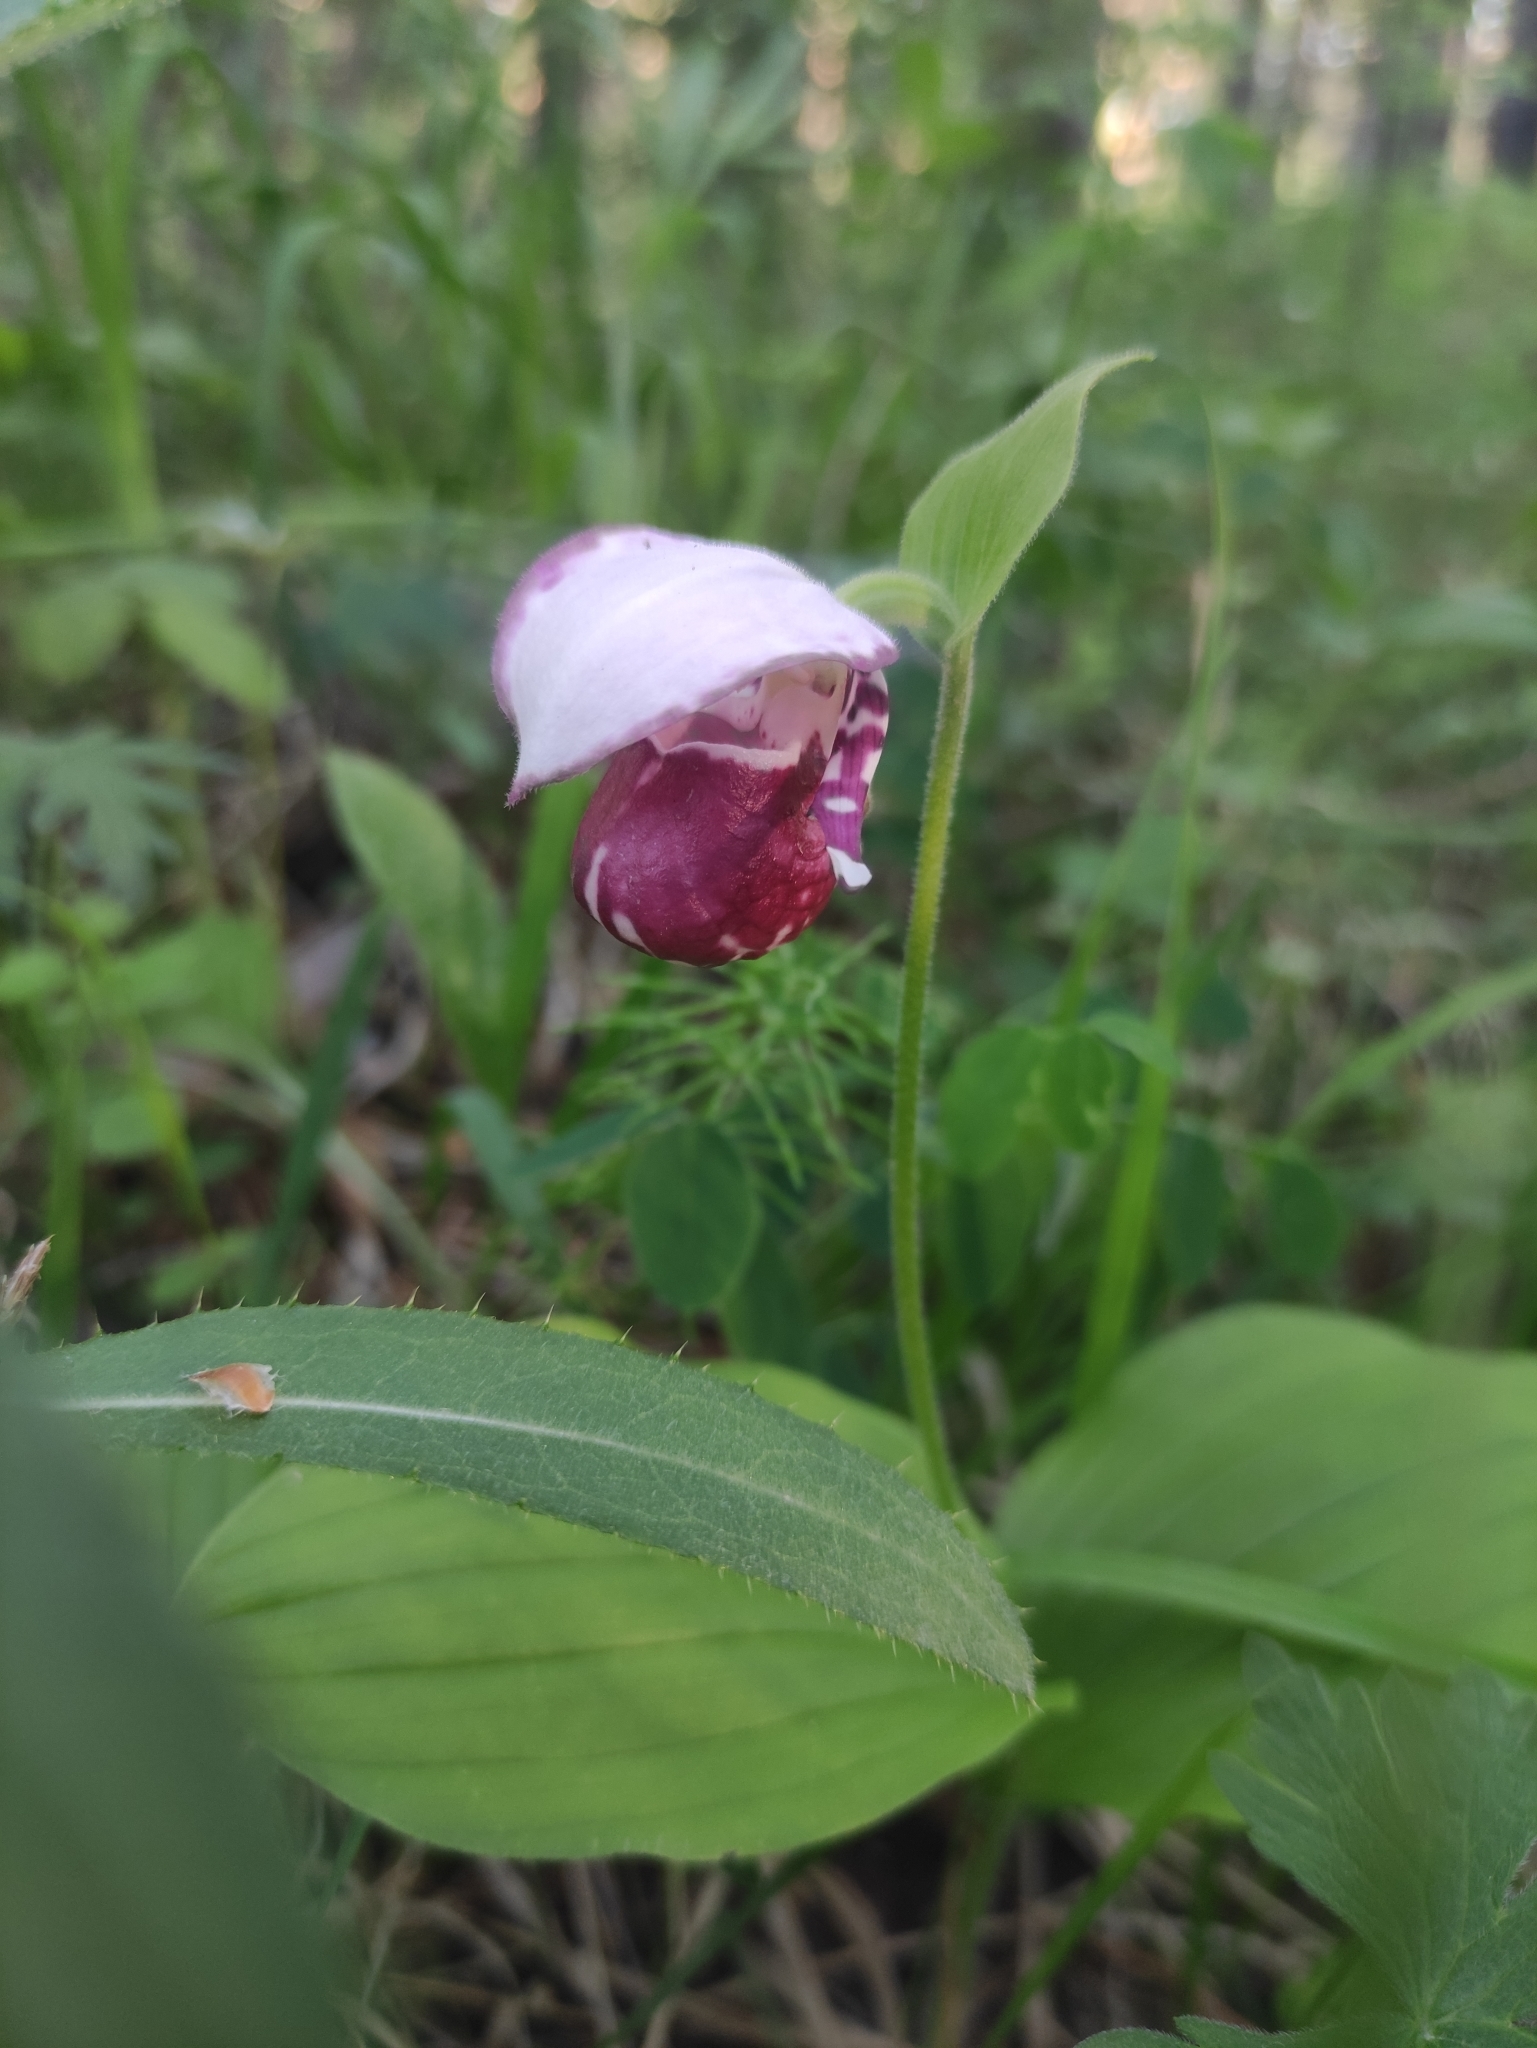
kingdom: Plantae
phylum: Tracheophyta
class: Liliopsida
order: Asparagales
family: Orchidaceae
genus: Cypripedium
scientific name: Cypripedium guttatum
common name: Pink lady slipper
